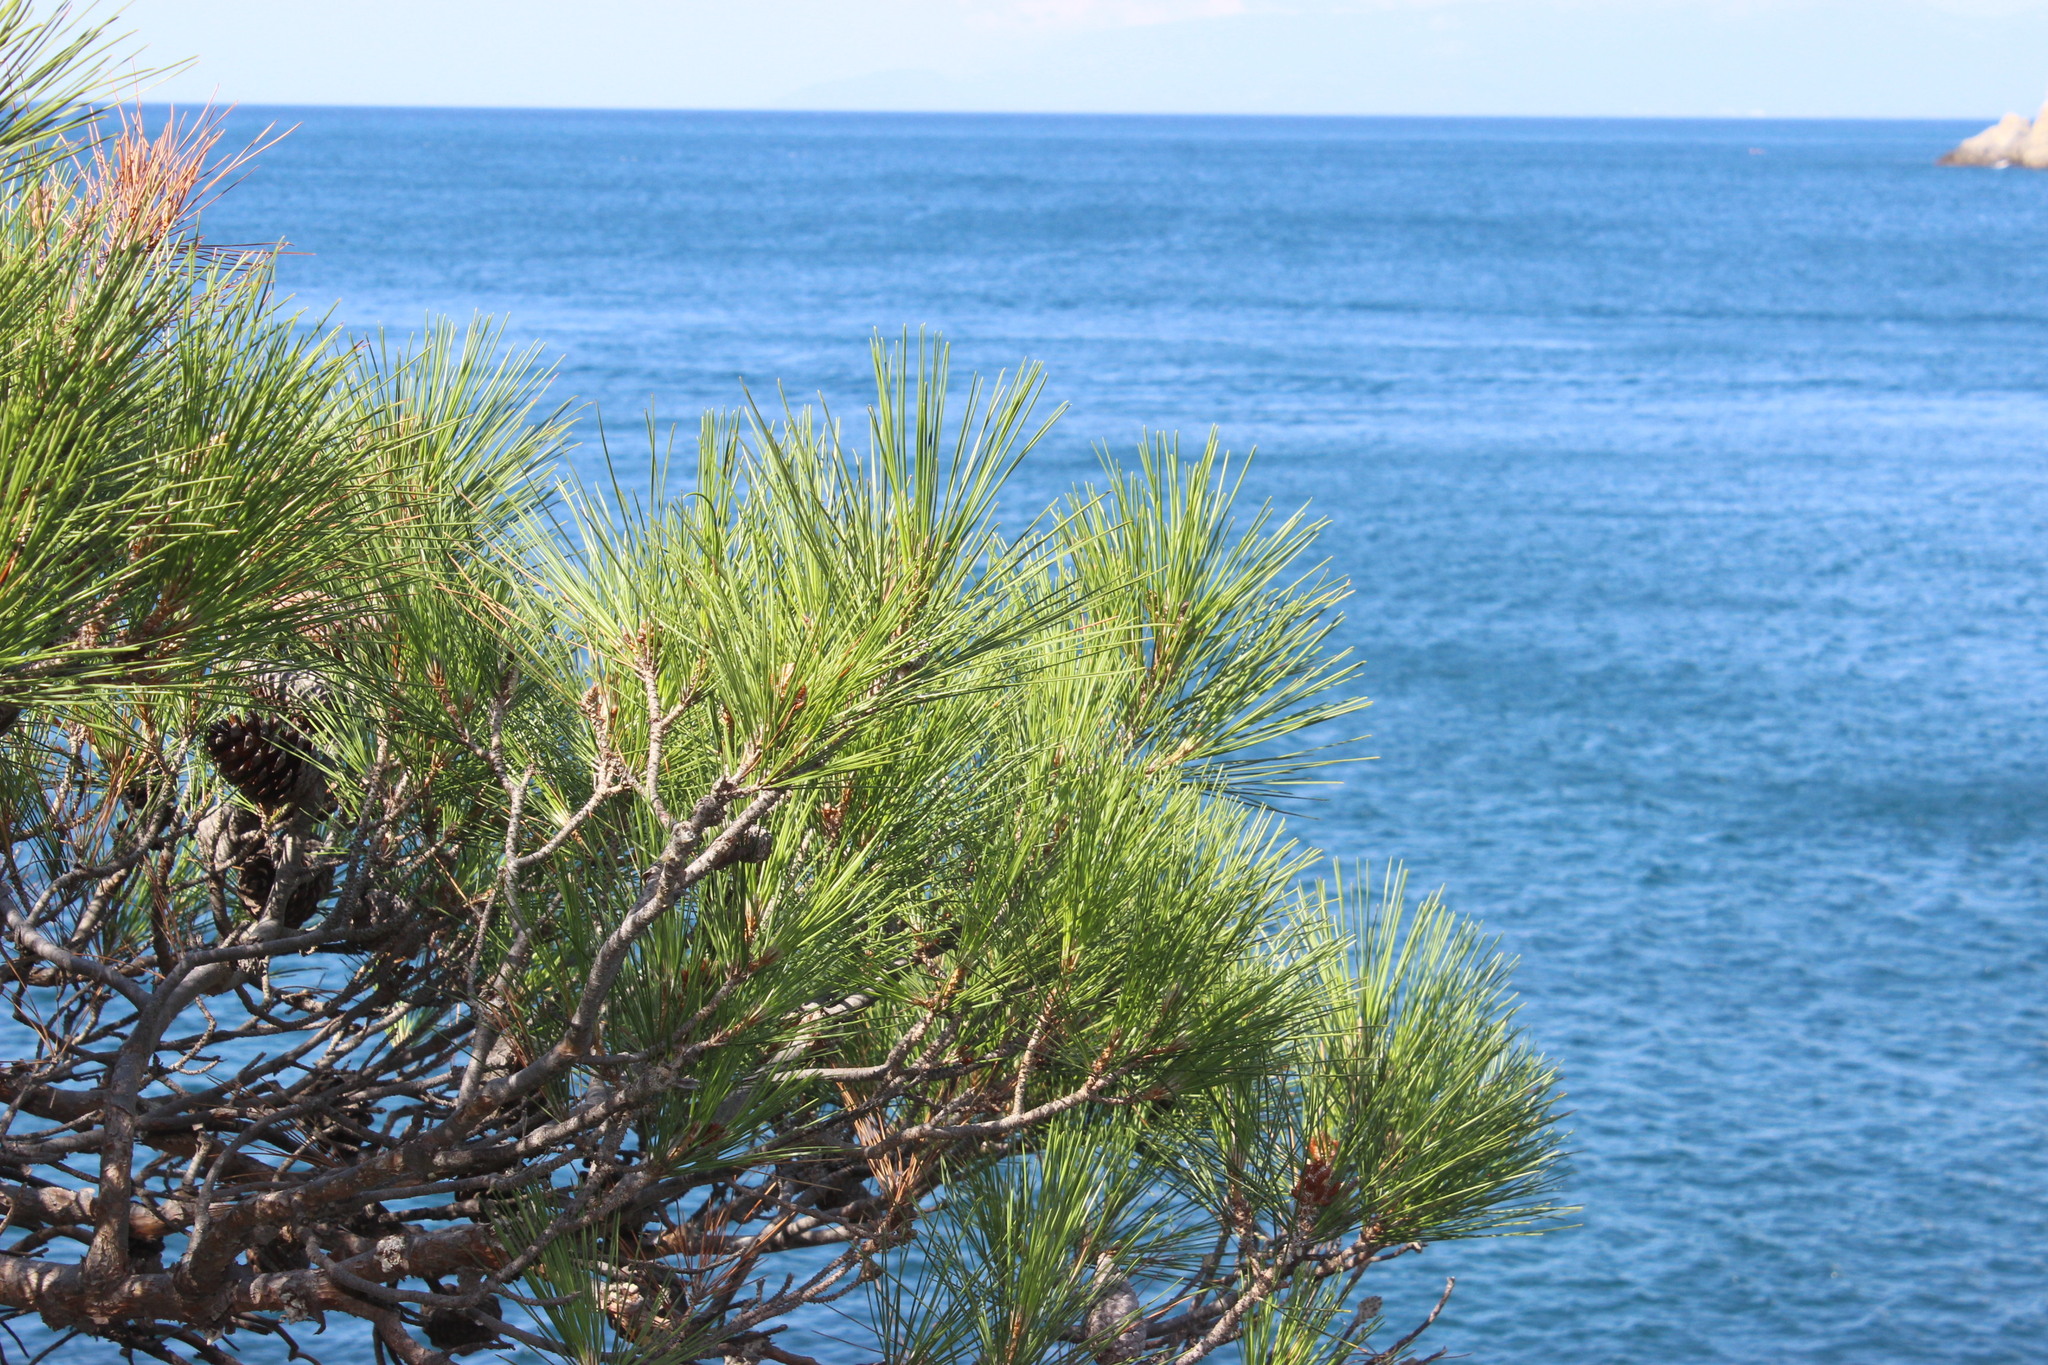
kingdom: Plantae
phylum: Tracheophyta
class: Pinopsida
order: Pinales
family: Pinaceae
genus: Pinus
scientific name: Pinus brutia
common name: Turkish pine
